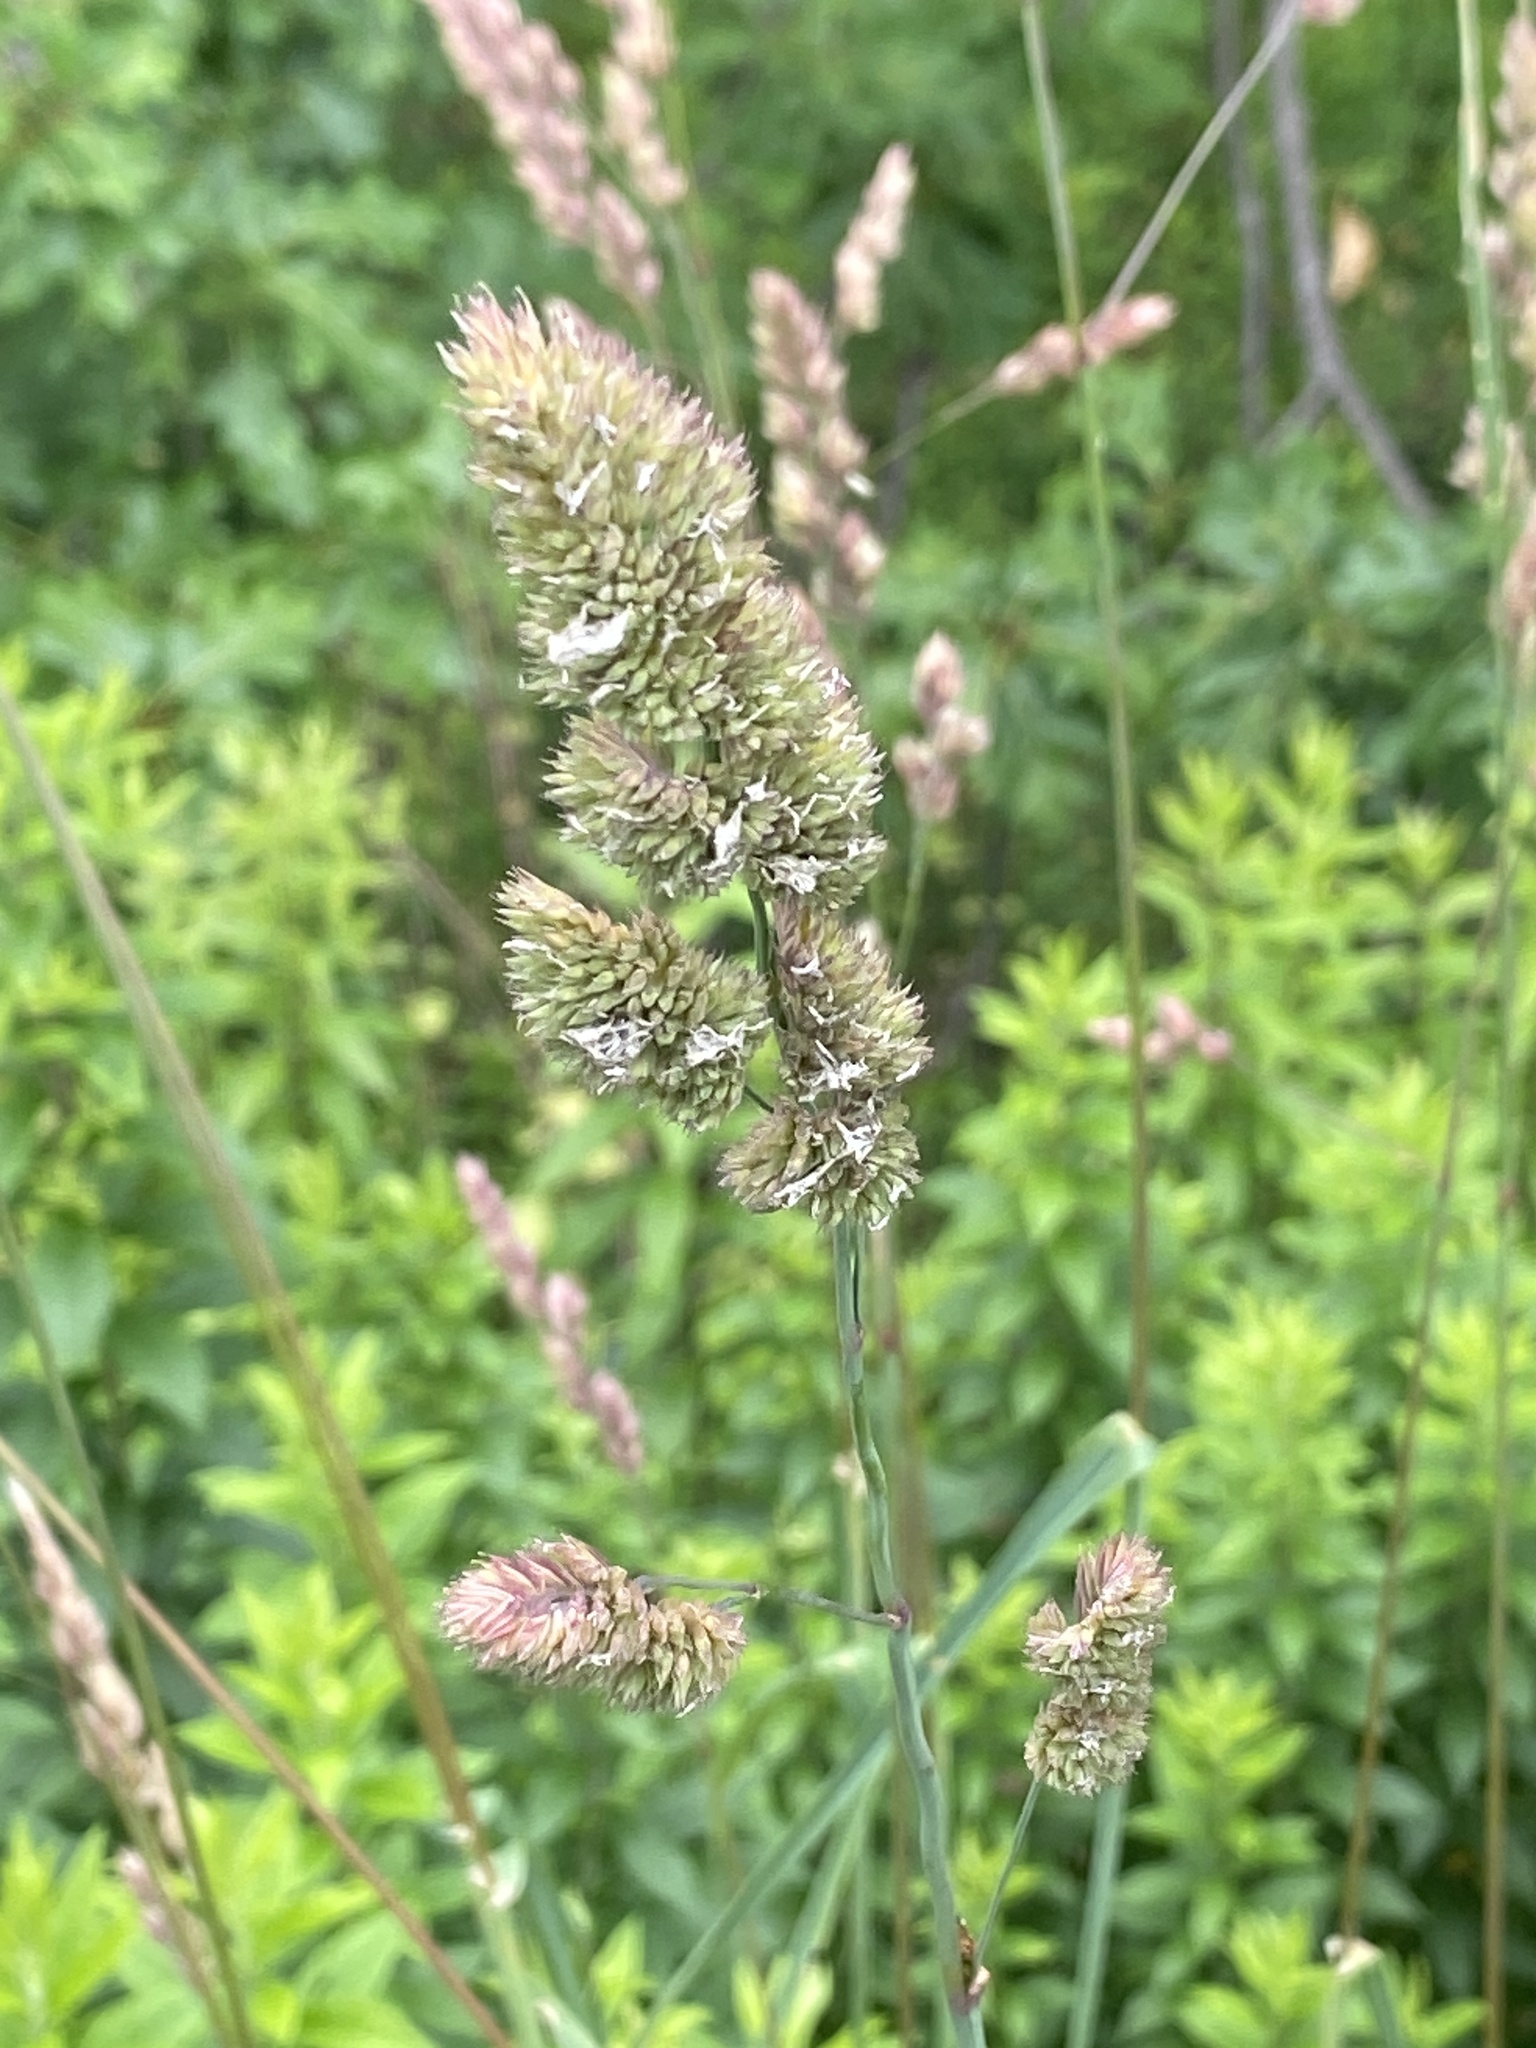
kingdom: Plantae
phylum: Tracheophyta
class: Liliopsida
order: Poales
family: Poaceae
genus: Dactylis
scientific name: Dactylis glomerata
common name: Orchardgrass
